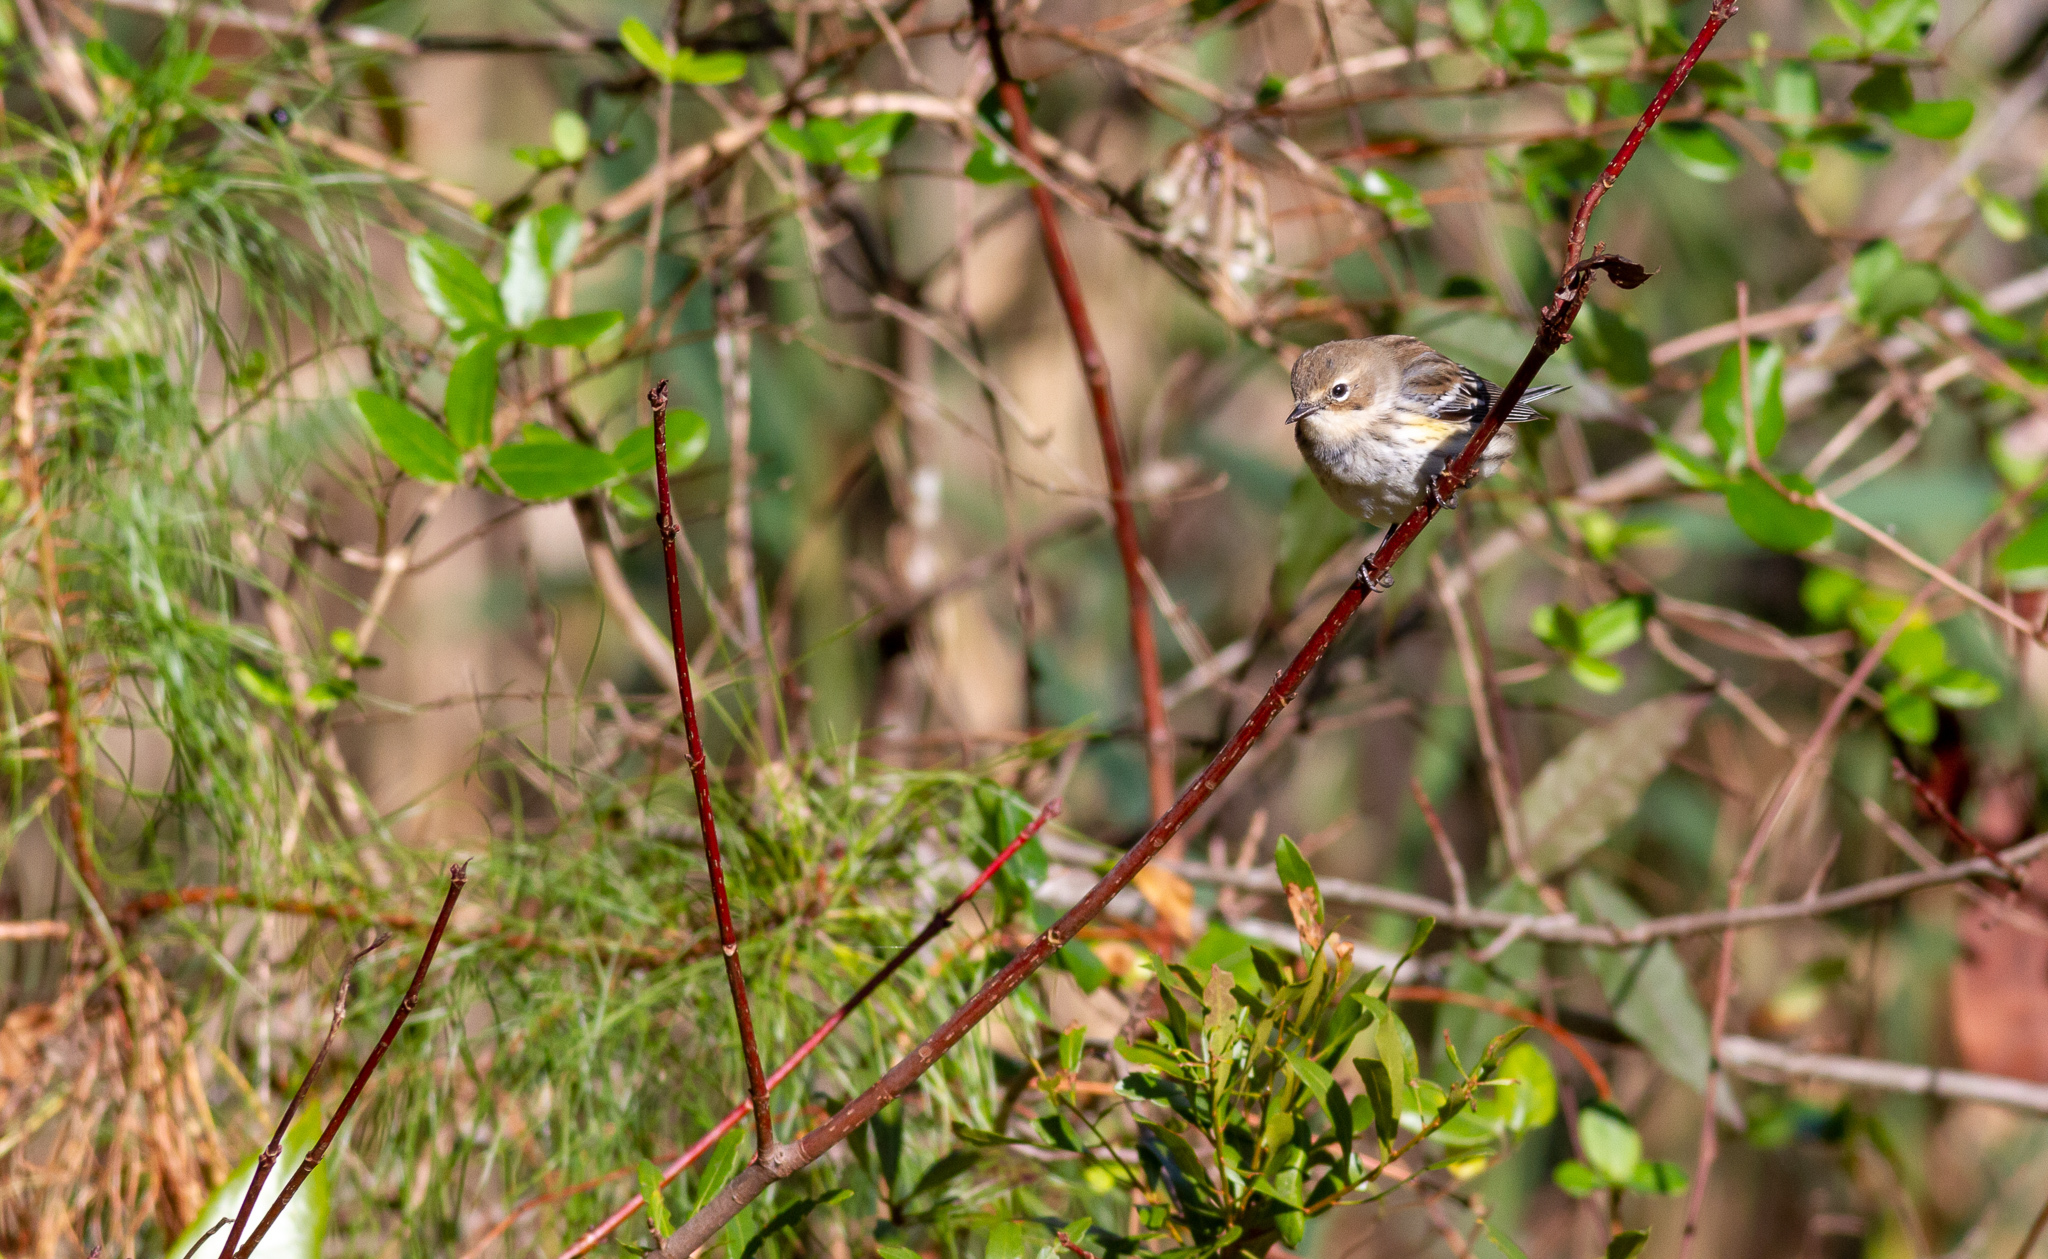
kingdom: Animalia
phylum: Chordata
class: Aves
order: Passeriformes
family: Parulidae
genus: Setophaga
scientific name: Setophaga coronata
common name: Myrtle warbler
